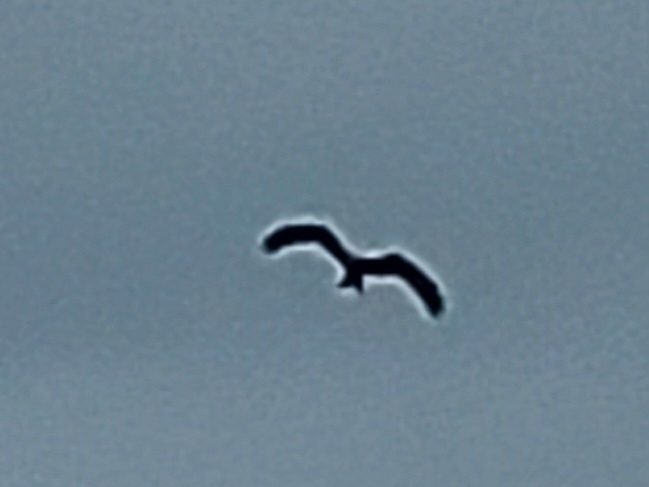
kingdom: Animalia
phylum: Chordata
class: Aves
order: Accipitriformes
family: Accipitridae
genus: Milvus
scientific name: Milvus milvus
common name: Red kite
